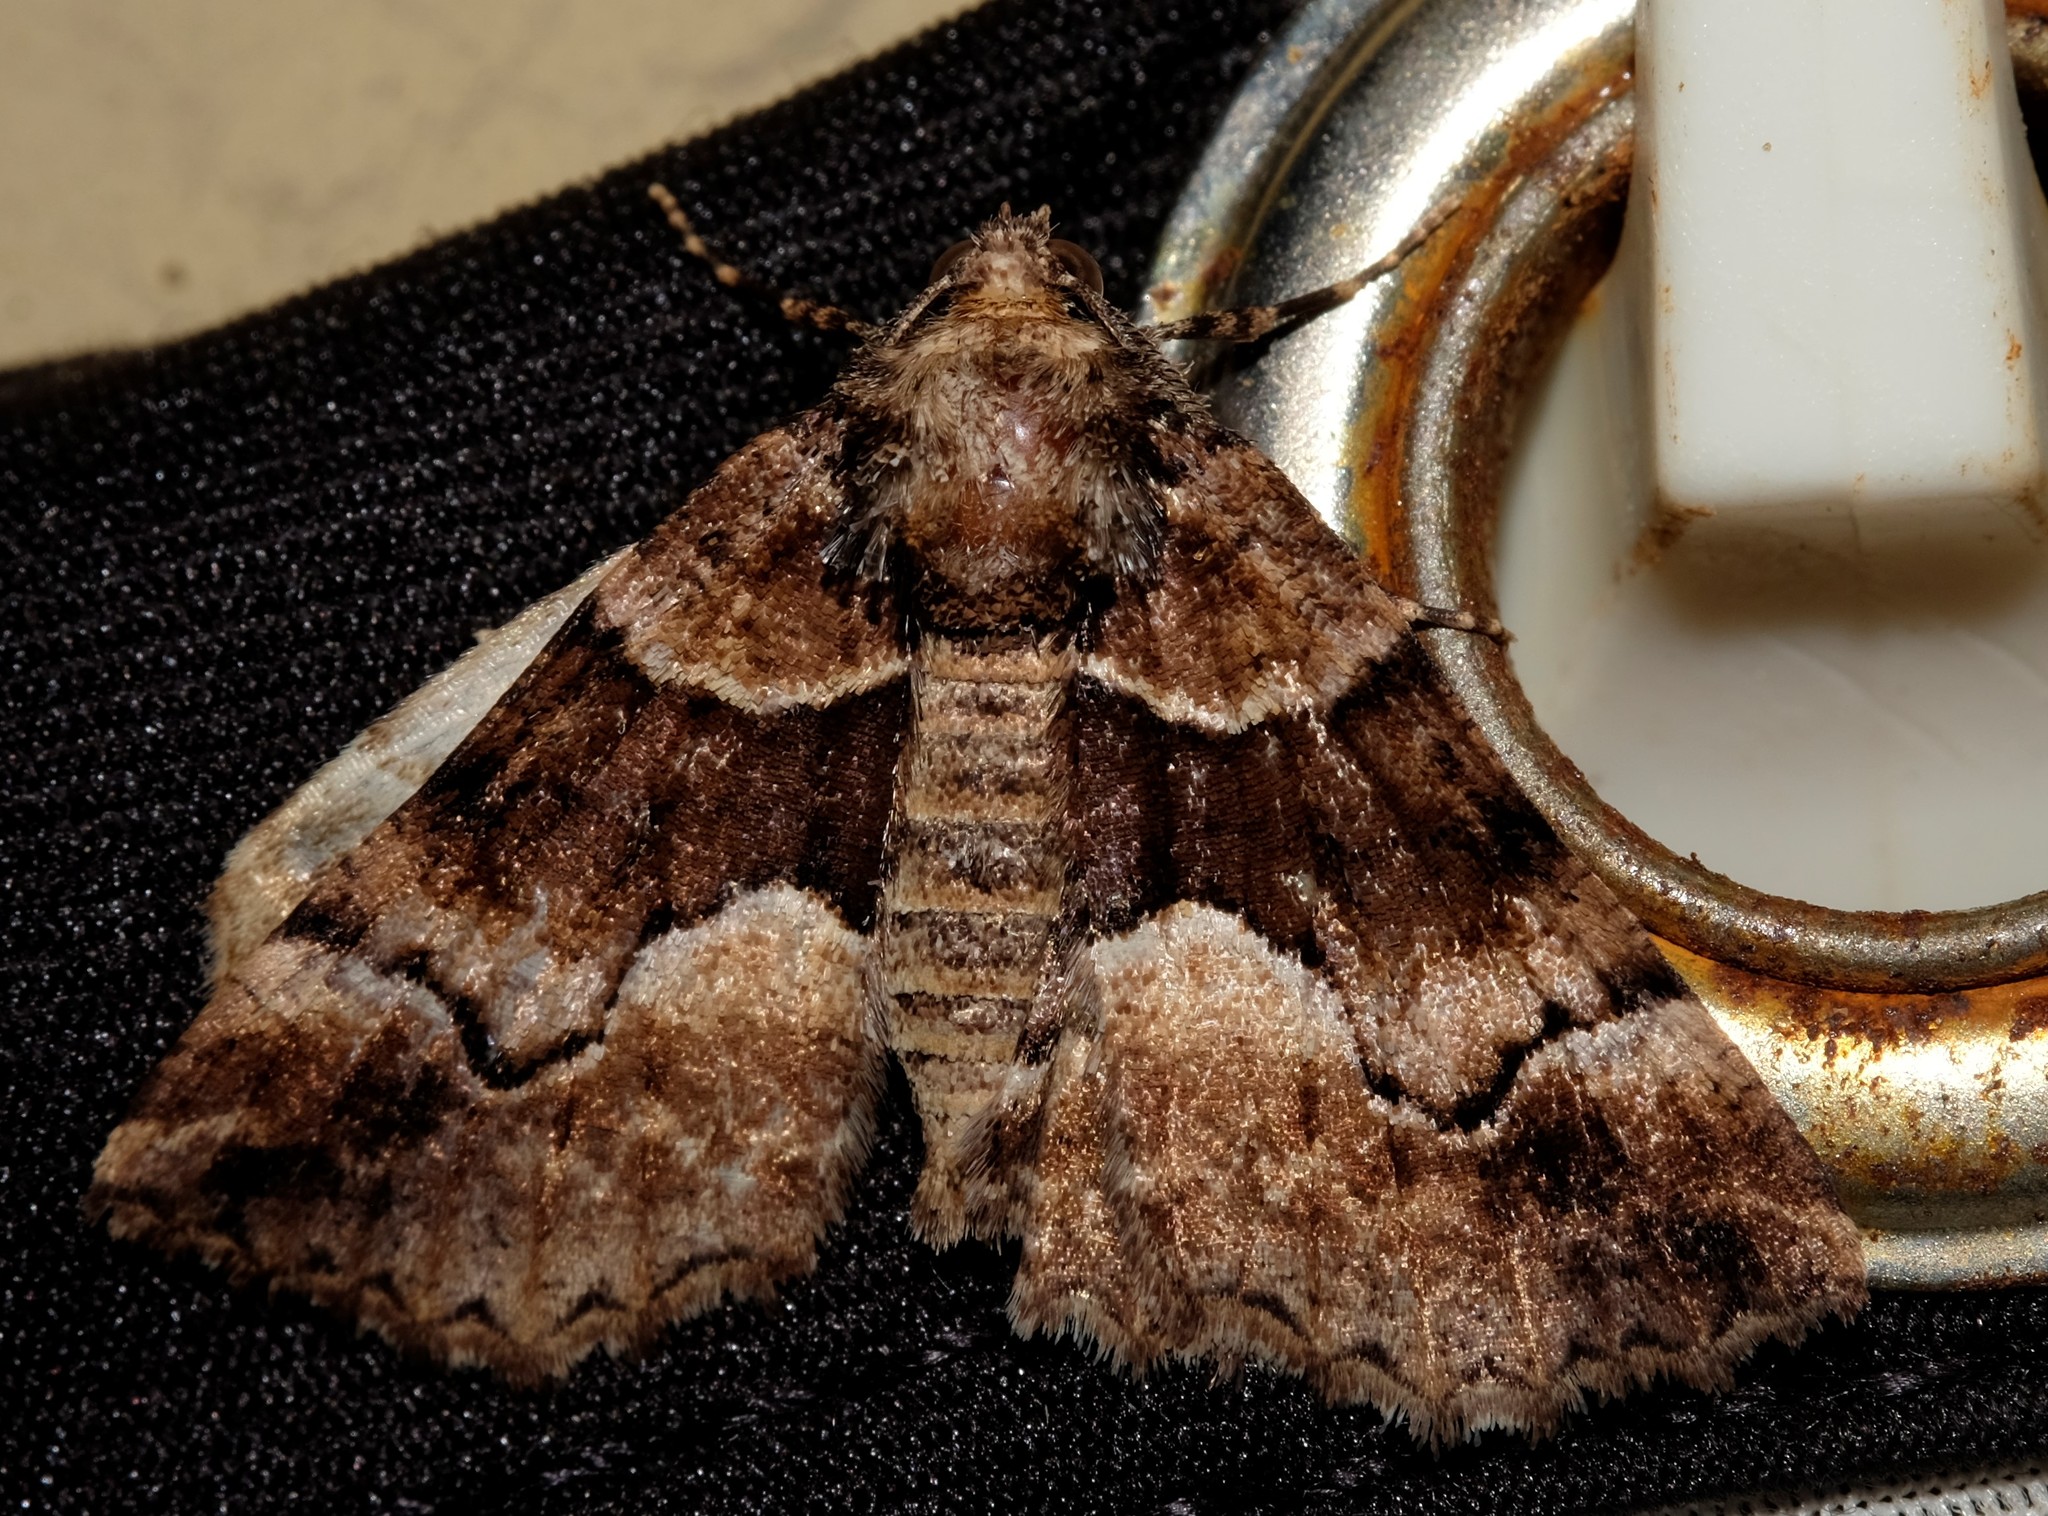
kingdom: Animalia
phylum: Arthropoda
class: Insecta
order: Lepidoptera
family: Geometridae
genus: Gastrina
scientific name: Gastrina cristaria
